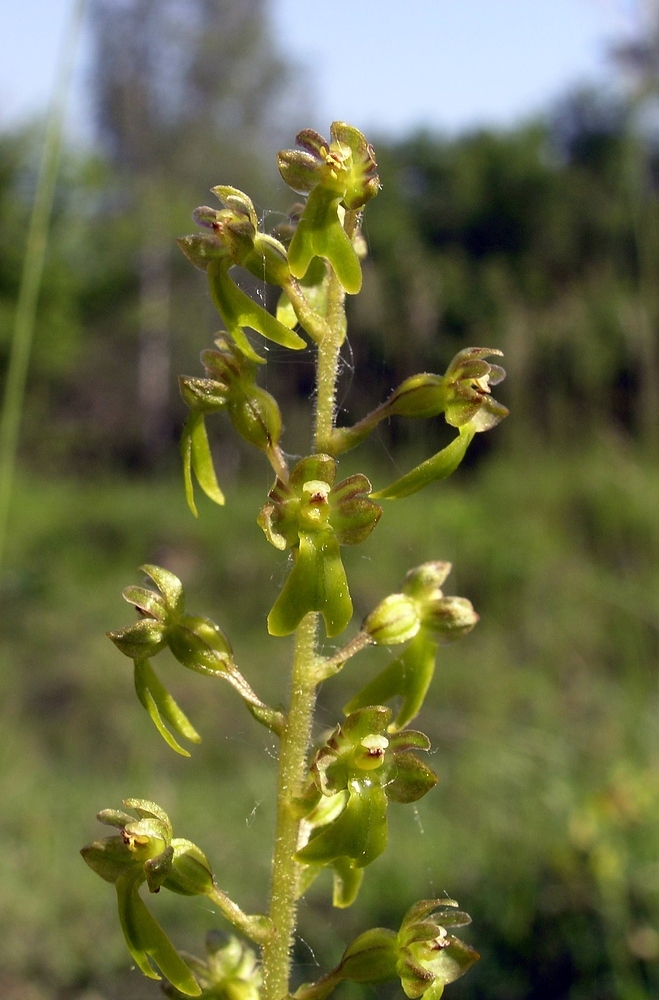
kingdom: Plantae
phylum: Tracheophyta
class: Liliopsida
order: Asparagales
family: Orchidaceae
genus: Neottia
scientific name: Neottia ovata
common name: Common twayblade
